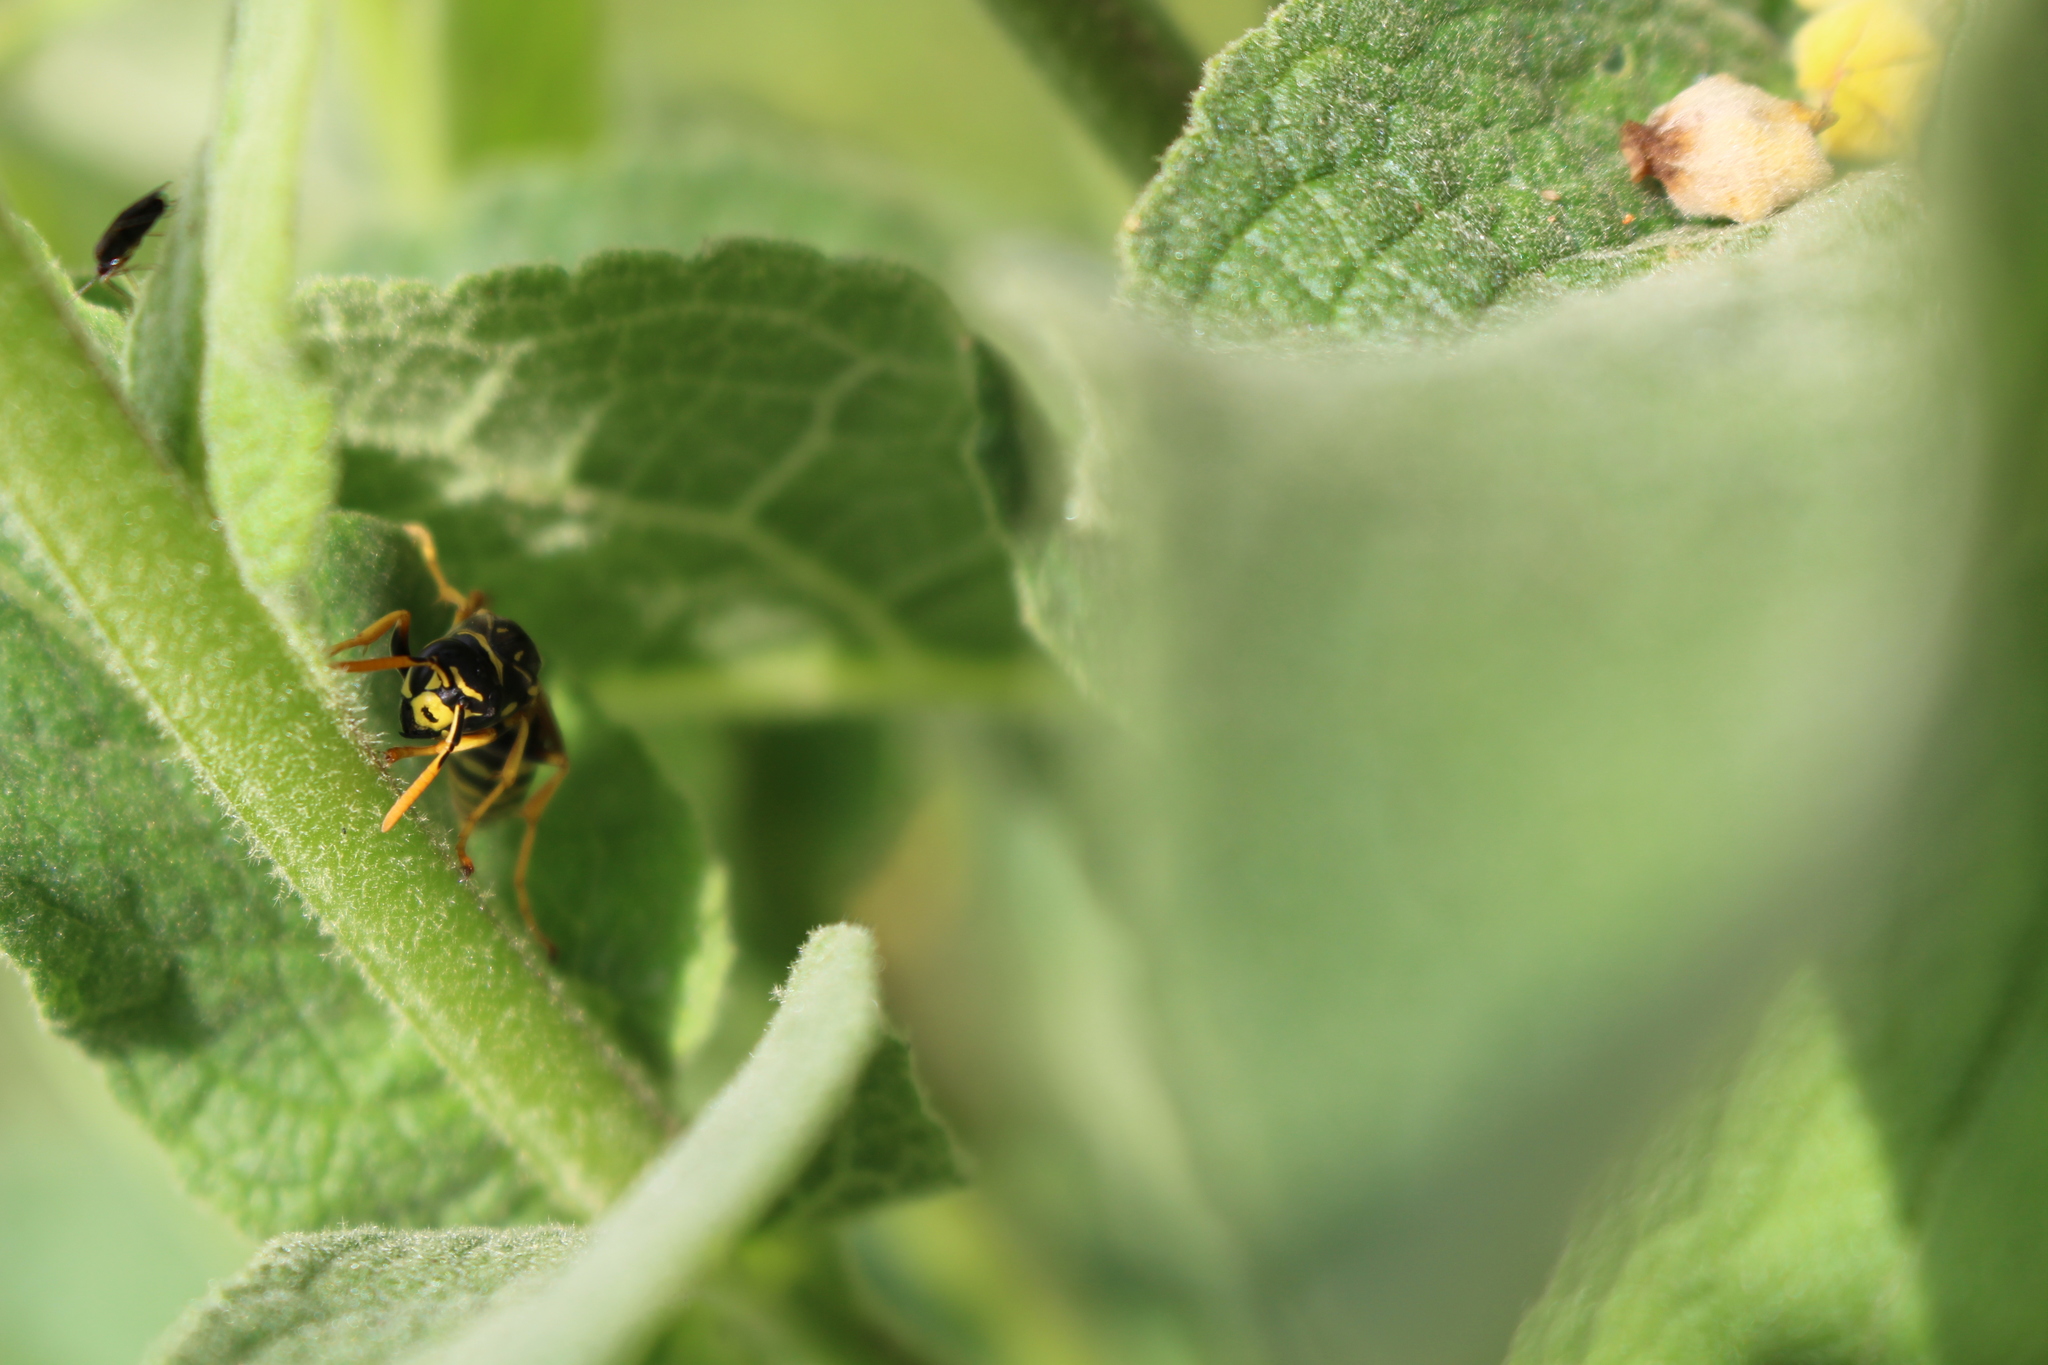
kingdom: Animalia
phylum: Arthropoda
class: Insecta
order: Hymenoptera
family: Eumenidae
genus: Polistes
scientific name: Polistes dominula
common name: Paper wasp
